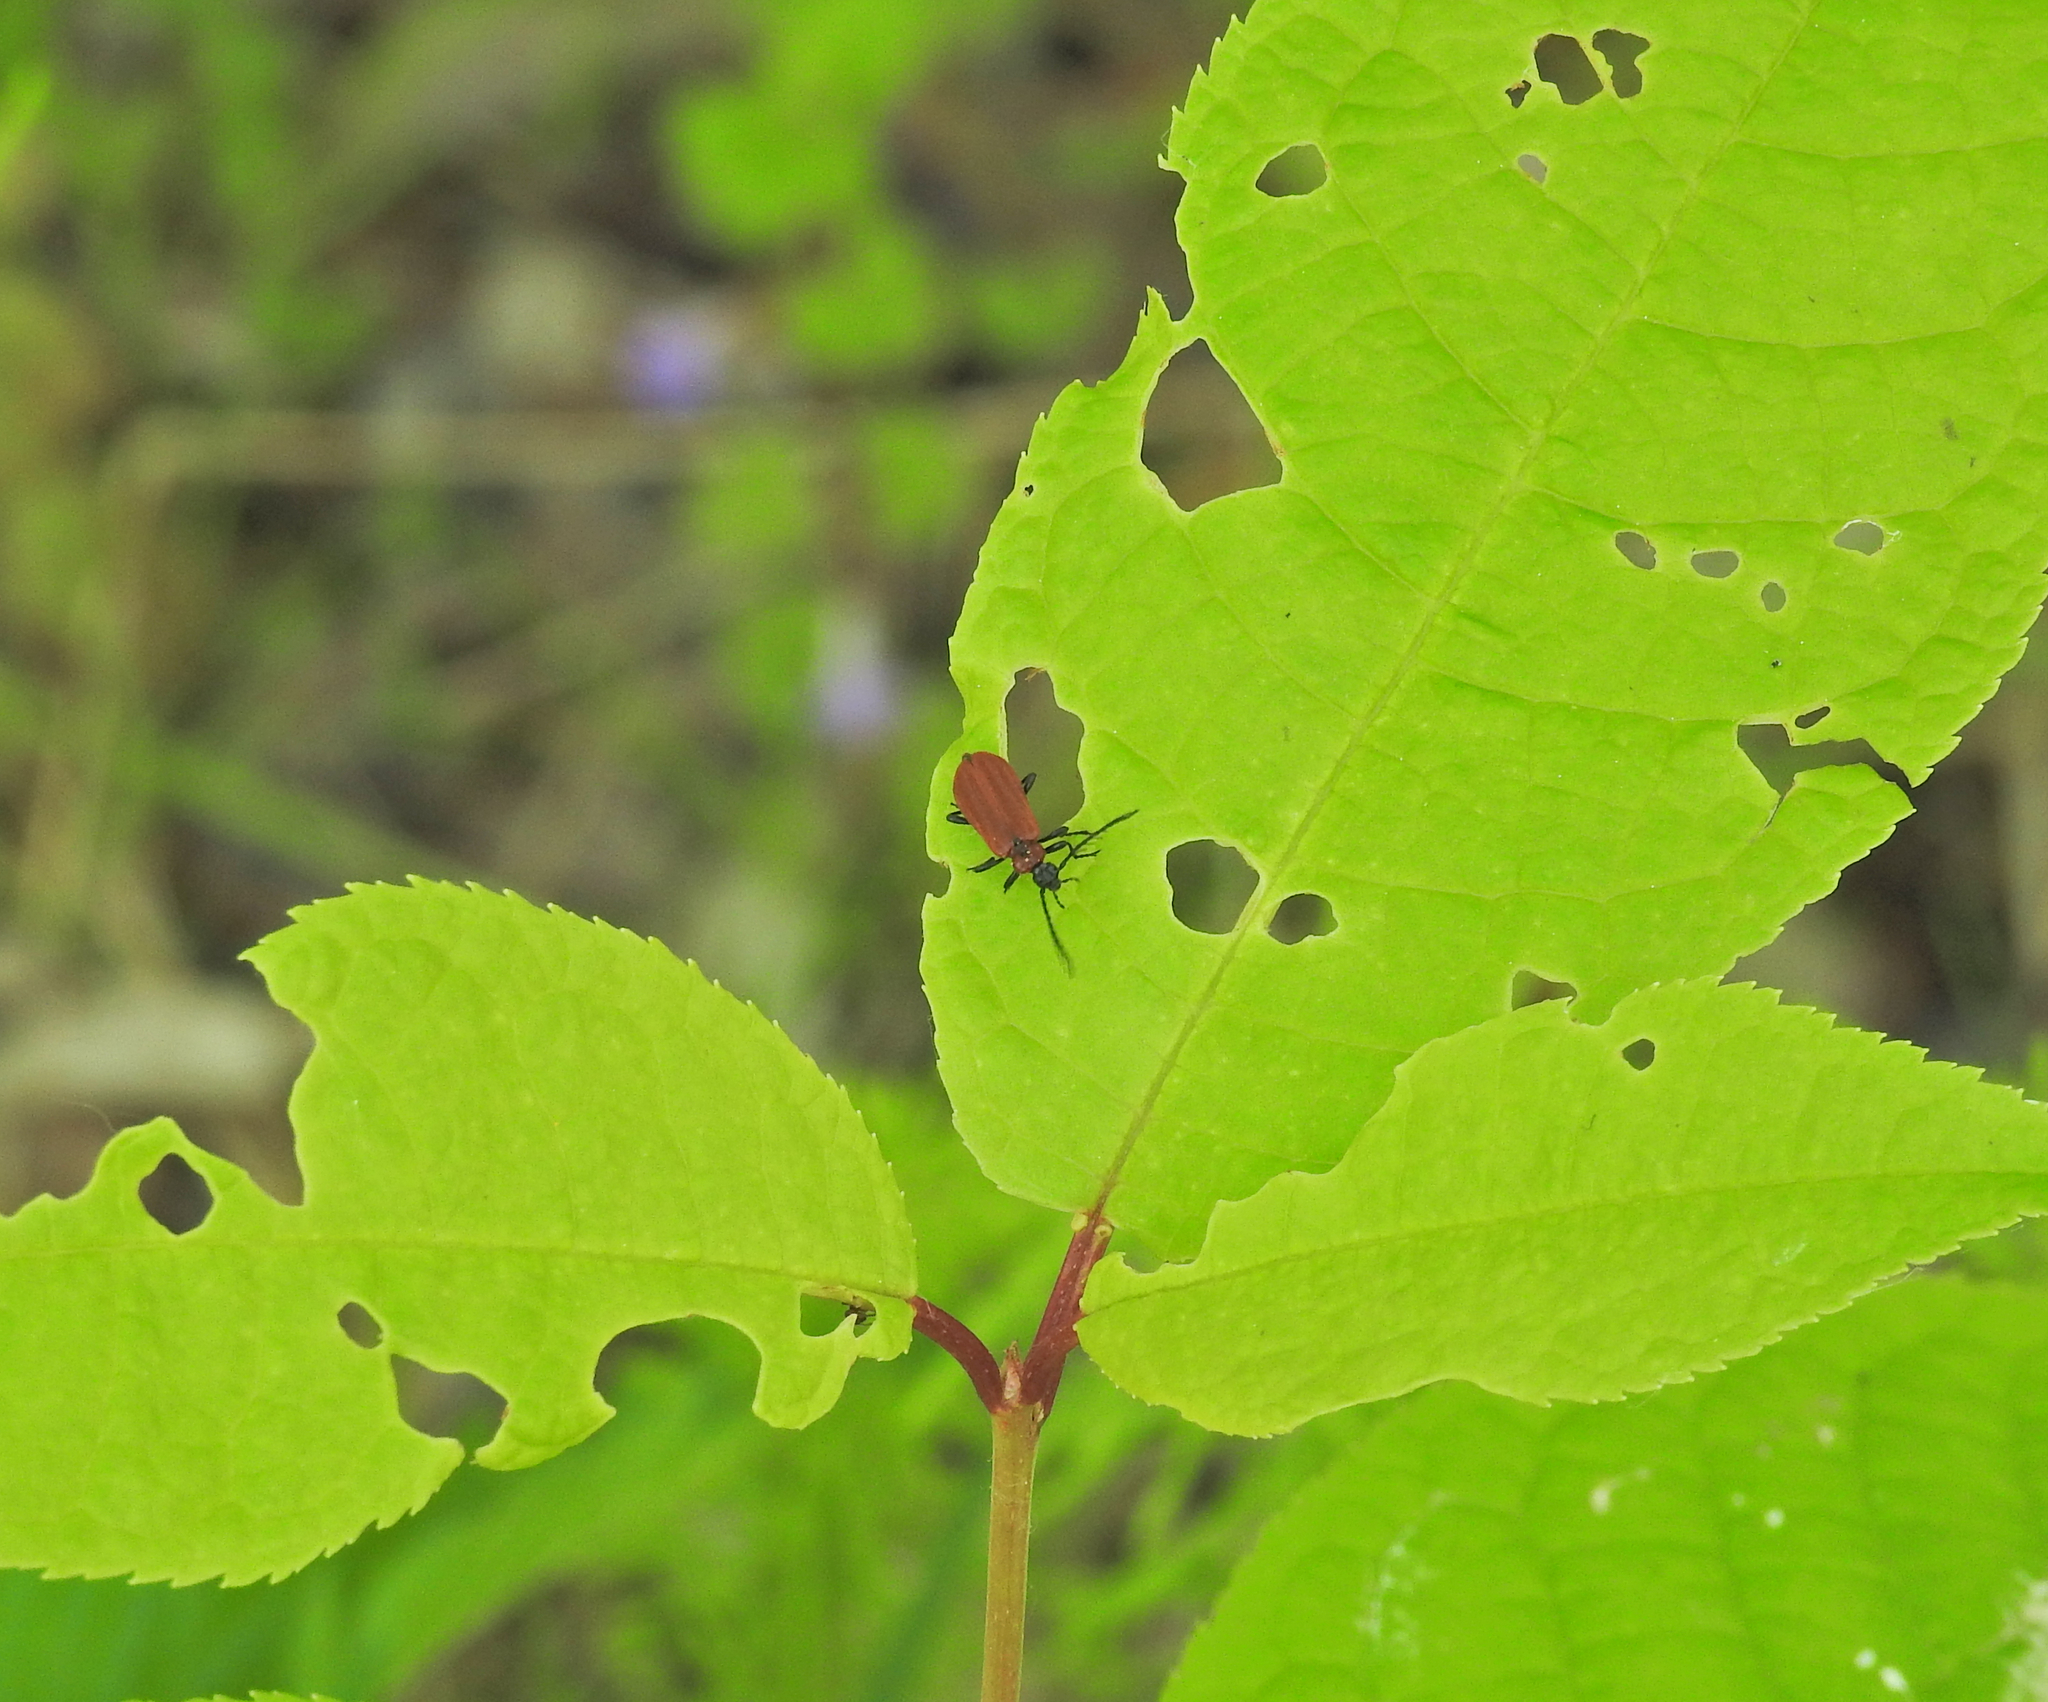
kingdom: Animalia
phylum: Arthropoda
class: Insecta
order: Coleoptera
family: Pyrochroidae
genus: Schizotus
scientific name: Schizotus pectinicornis
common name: Scarce cardinal beetle
